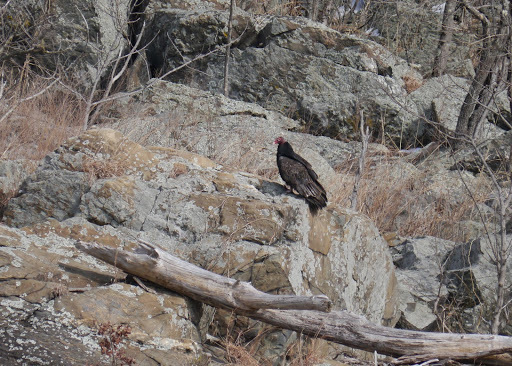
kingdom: Animalia
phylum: Chordata
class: Aves
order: Accipitriformes
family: Cathartidae
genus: Cathartes
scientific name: Cathartes aura
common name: Turkey vulture
